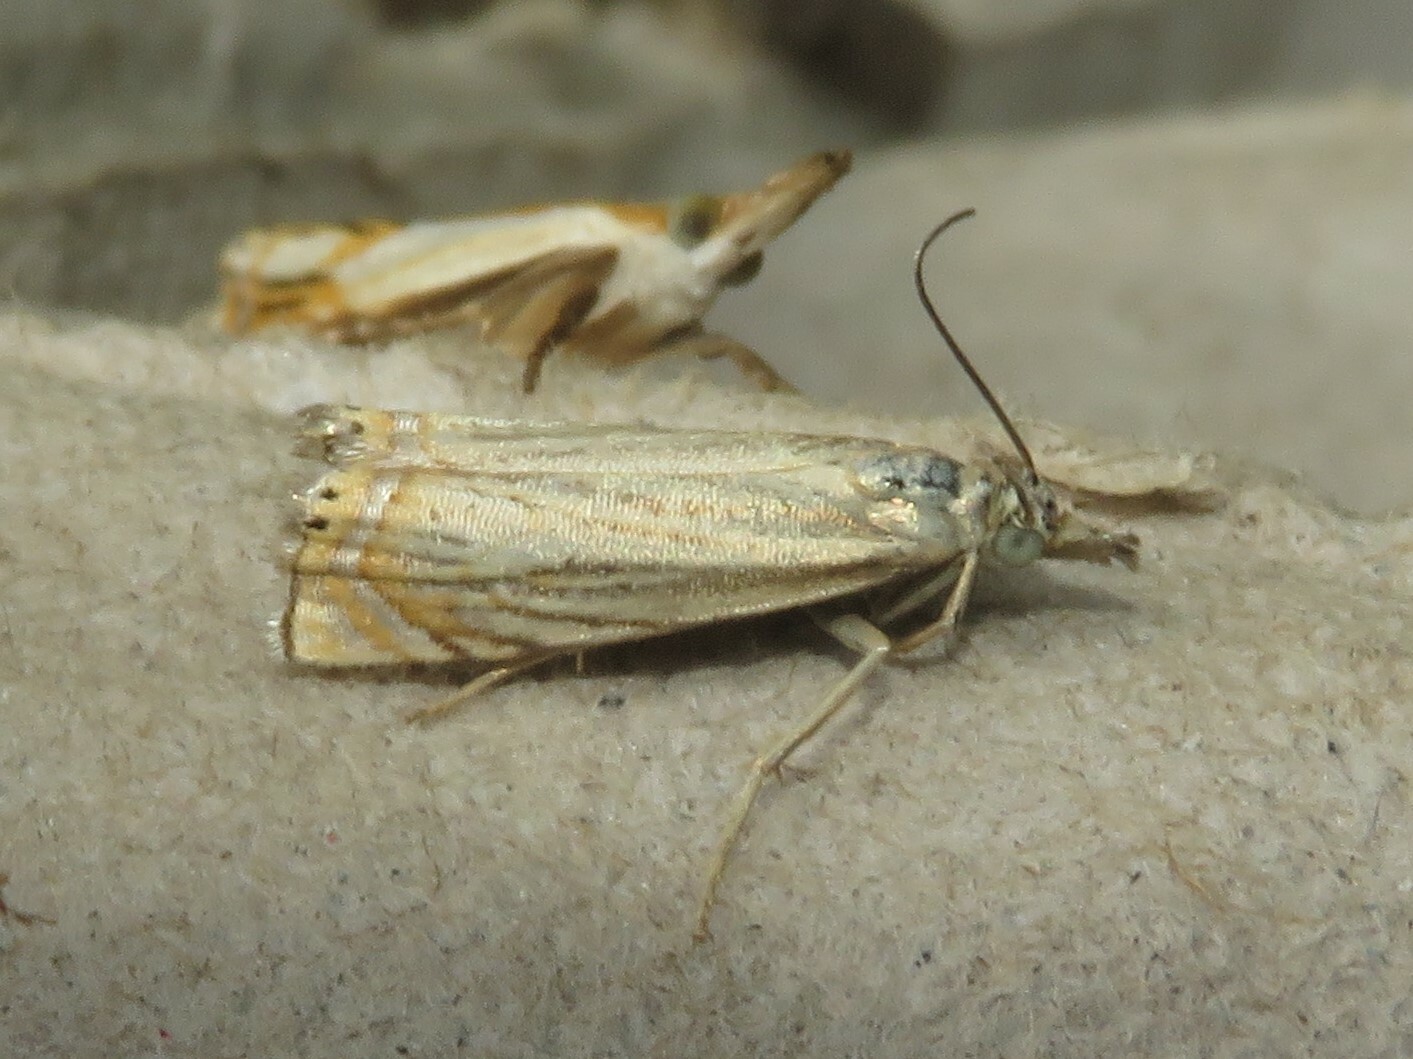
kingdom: Animalia
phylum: Arthropoda
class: Insecta
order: Lepidoptera
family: Crambidae
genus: Chrysoteuchia
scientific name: Chrysoteuchia topiarius
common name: Topiary grass-veneer
